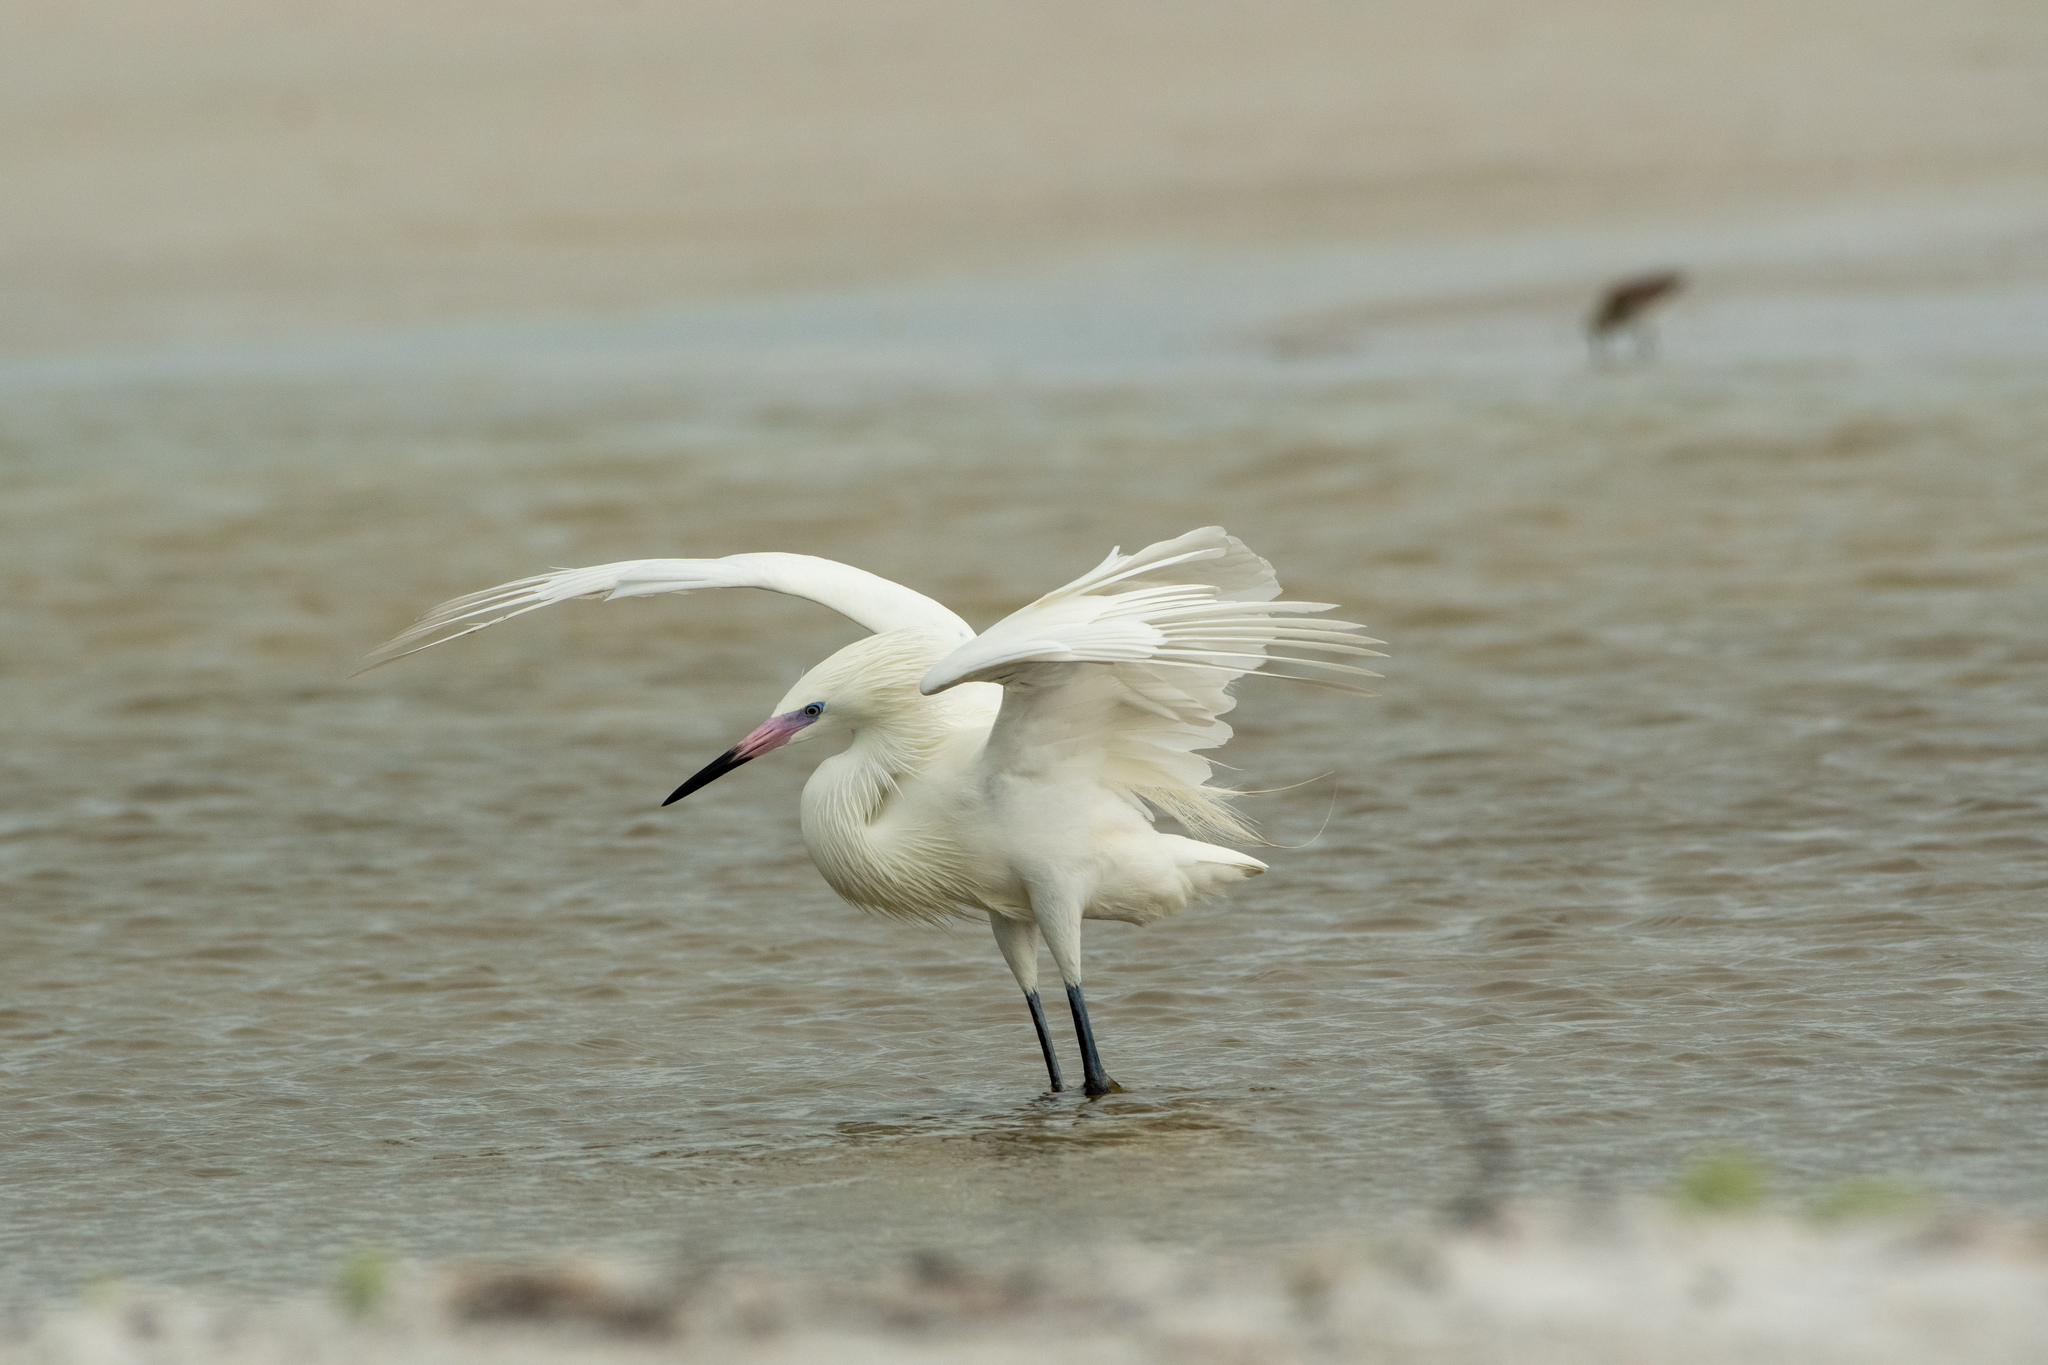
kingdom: Animalia
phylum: Chordata
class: Aves
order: Pelecaniformes
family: Ardeidae
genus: Egretta
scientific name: Egretta rufescens
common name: Reddish egret
